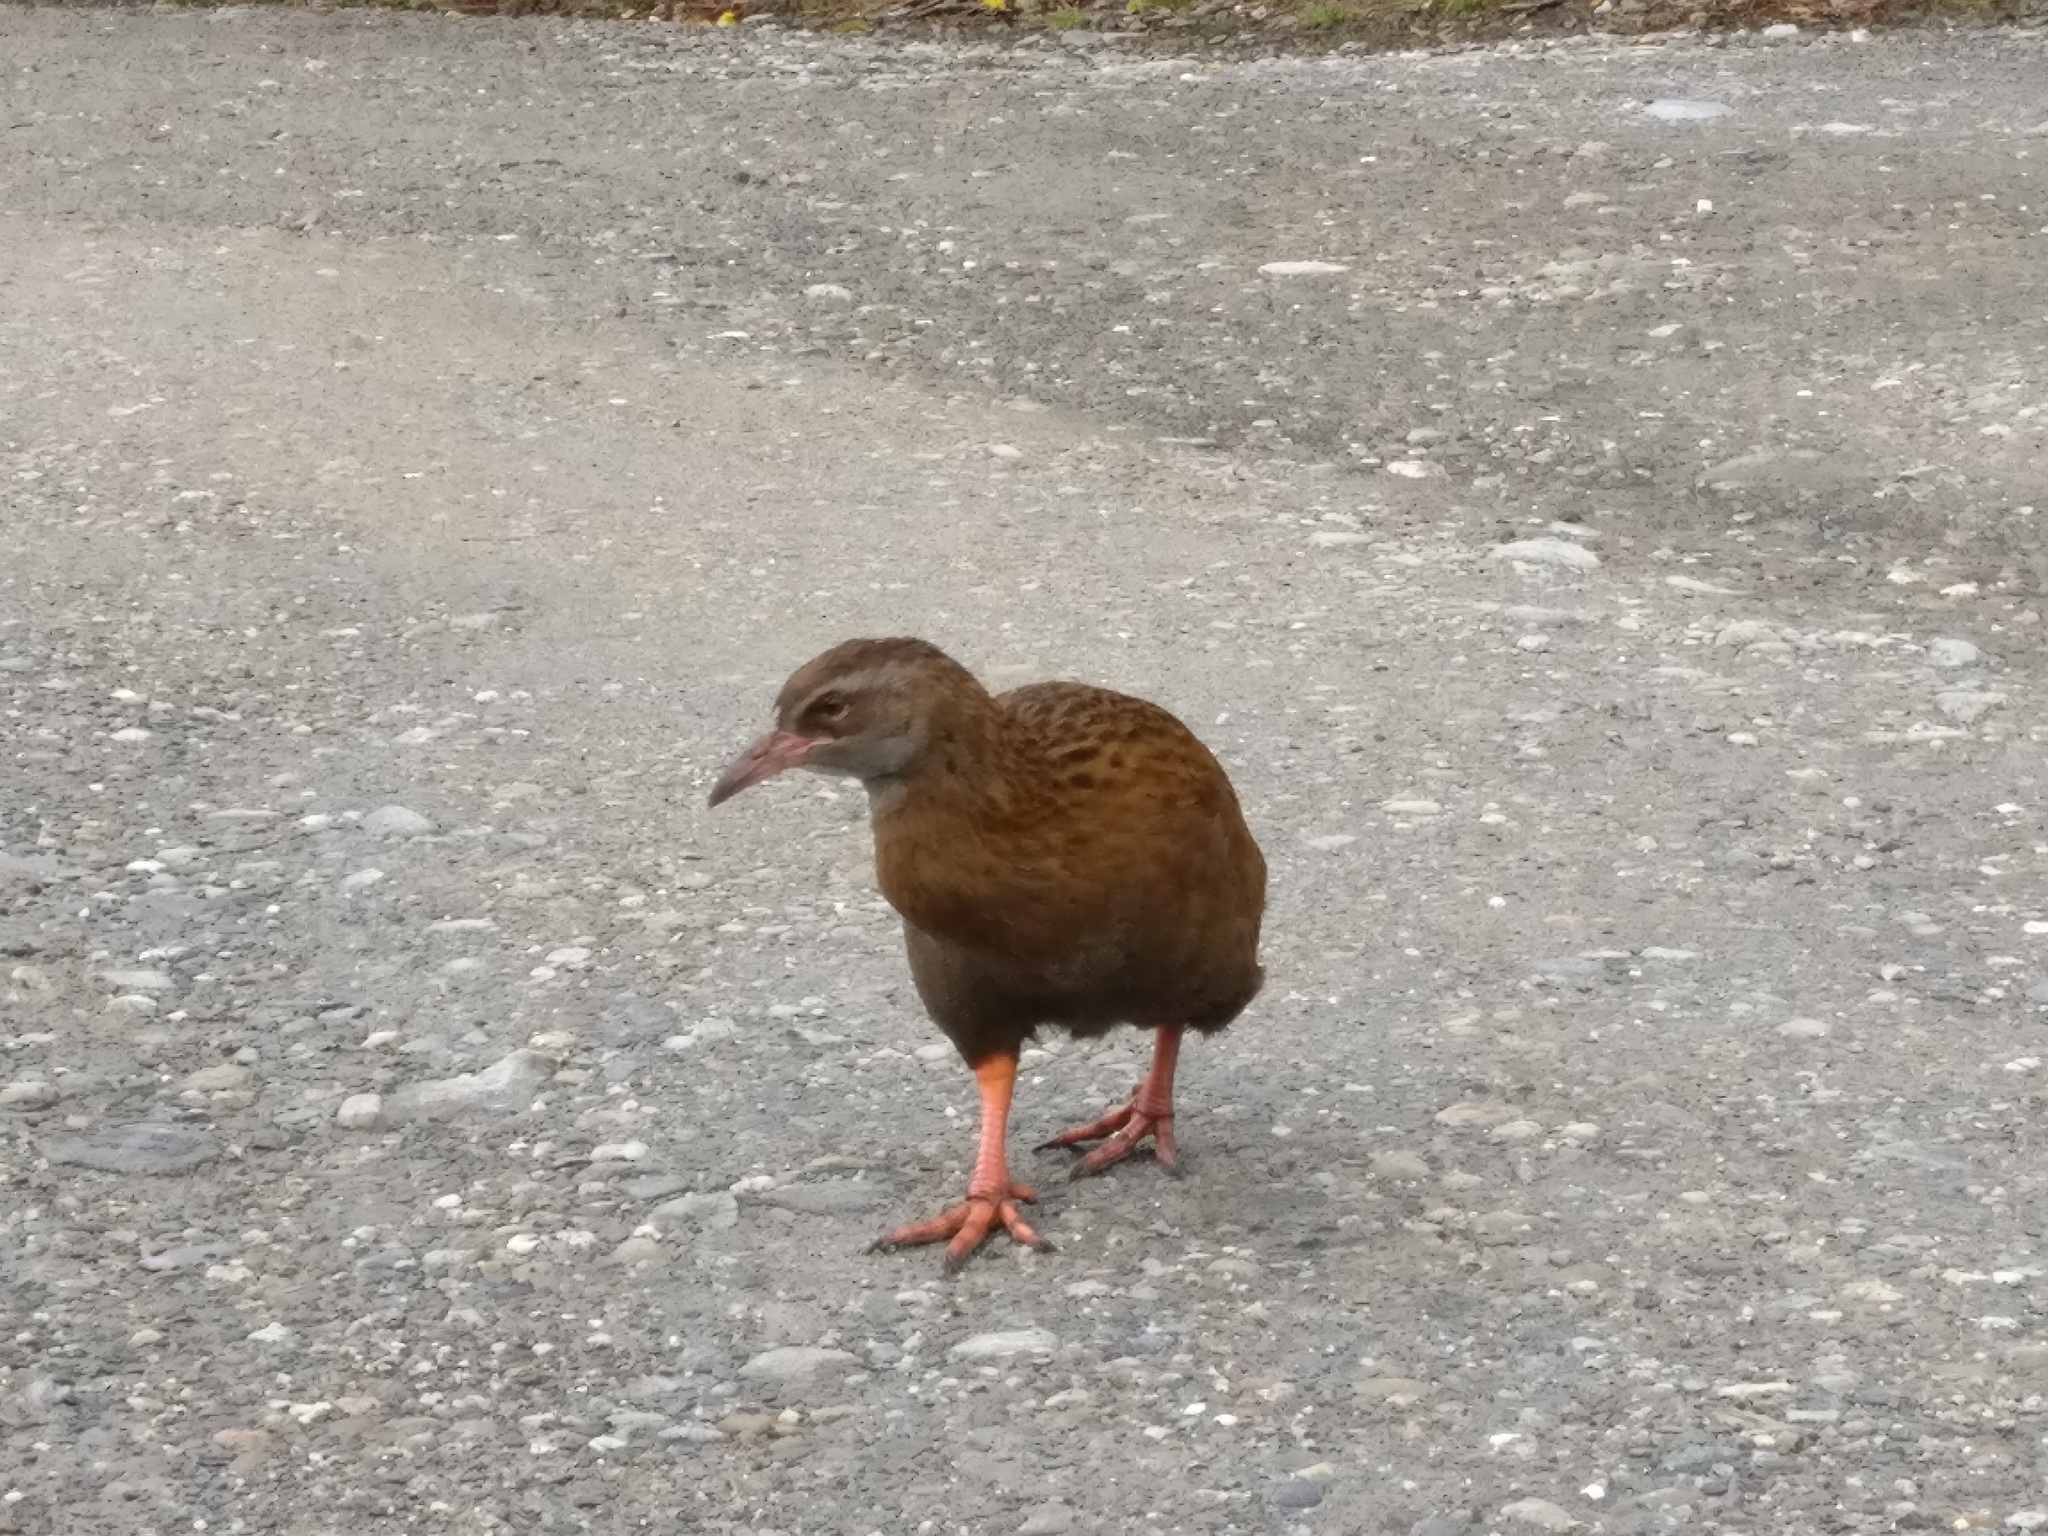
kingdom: Animalia
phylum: Chordata
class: Aves
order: Gruiformes
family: Rallidae
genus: Gallirallus
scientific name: Gallirallus australis
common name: Weka
